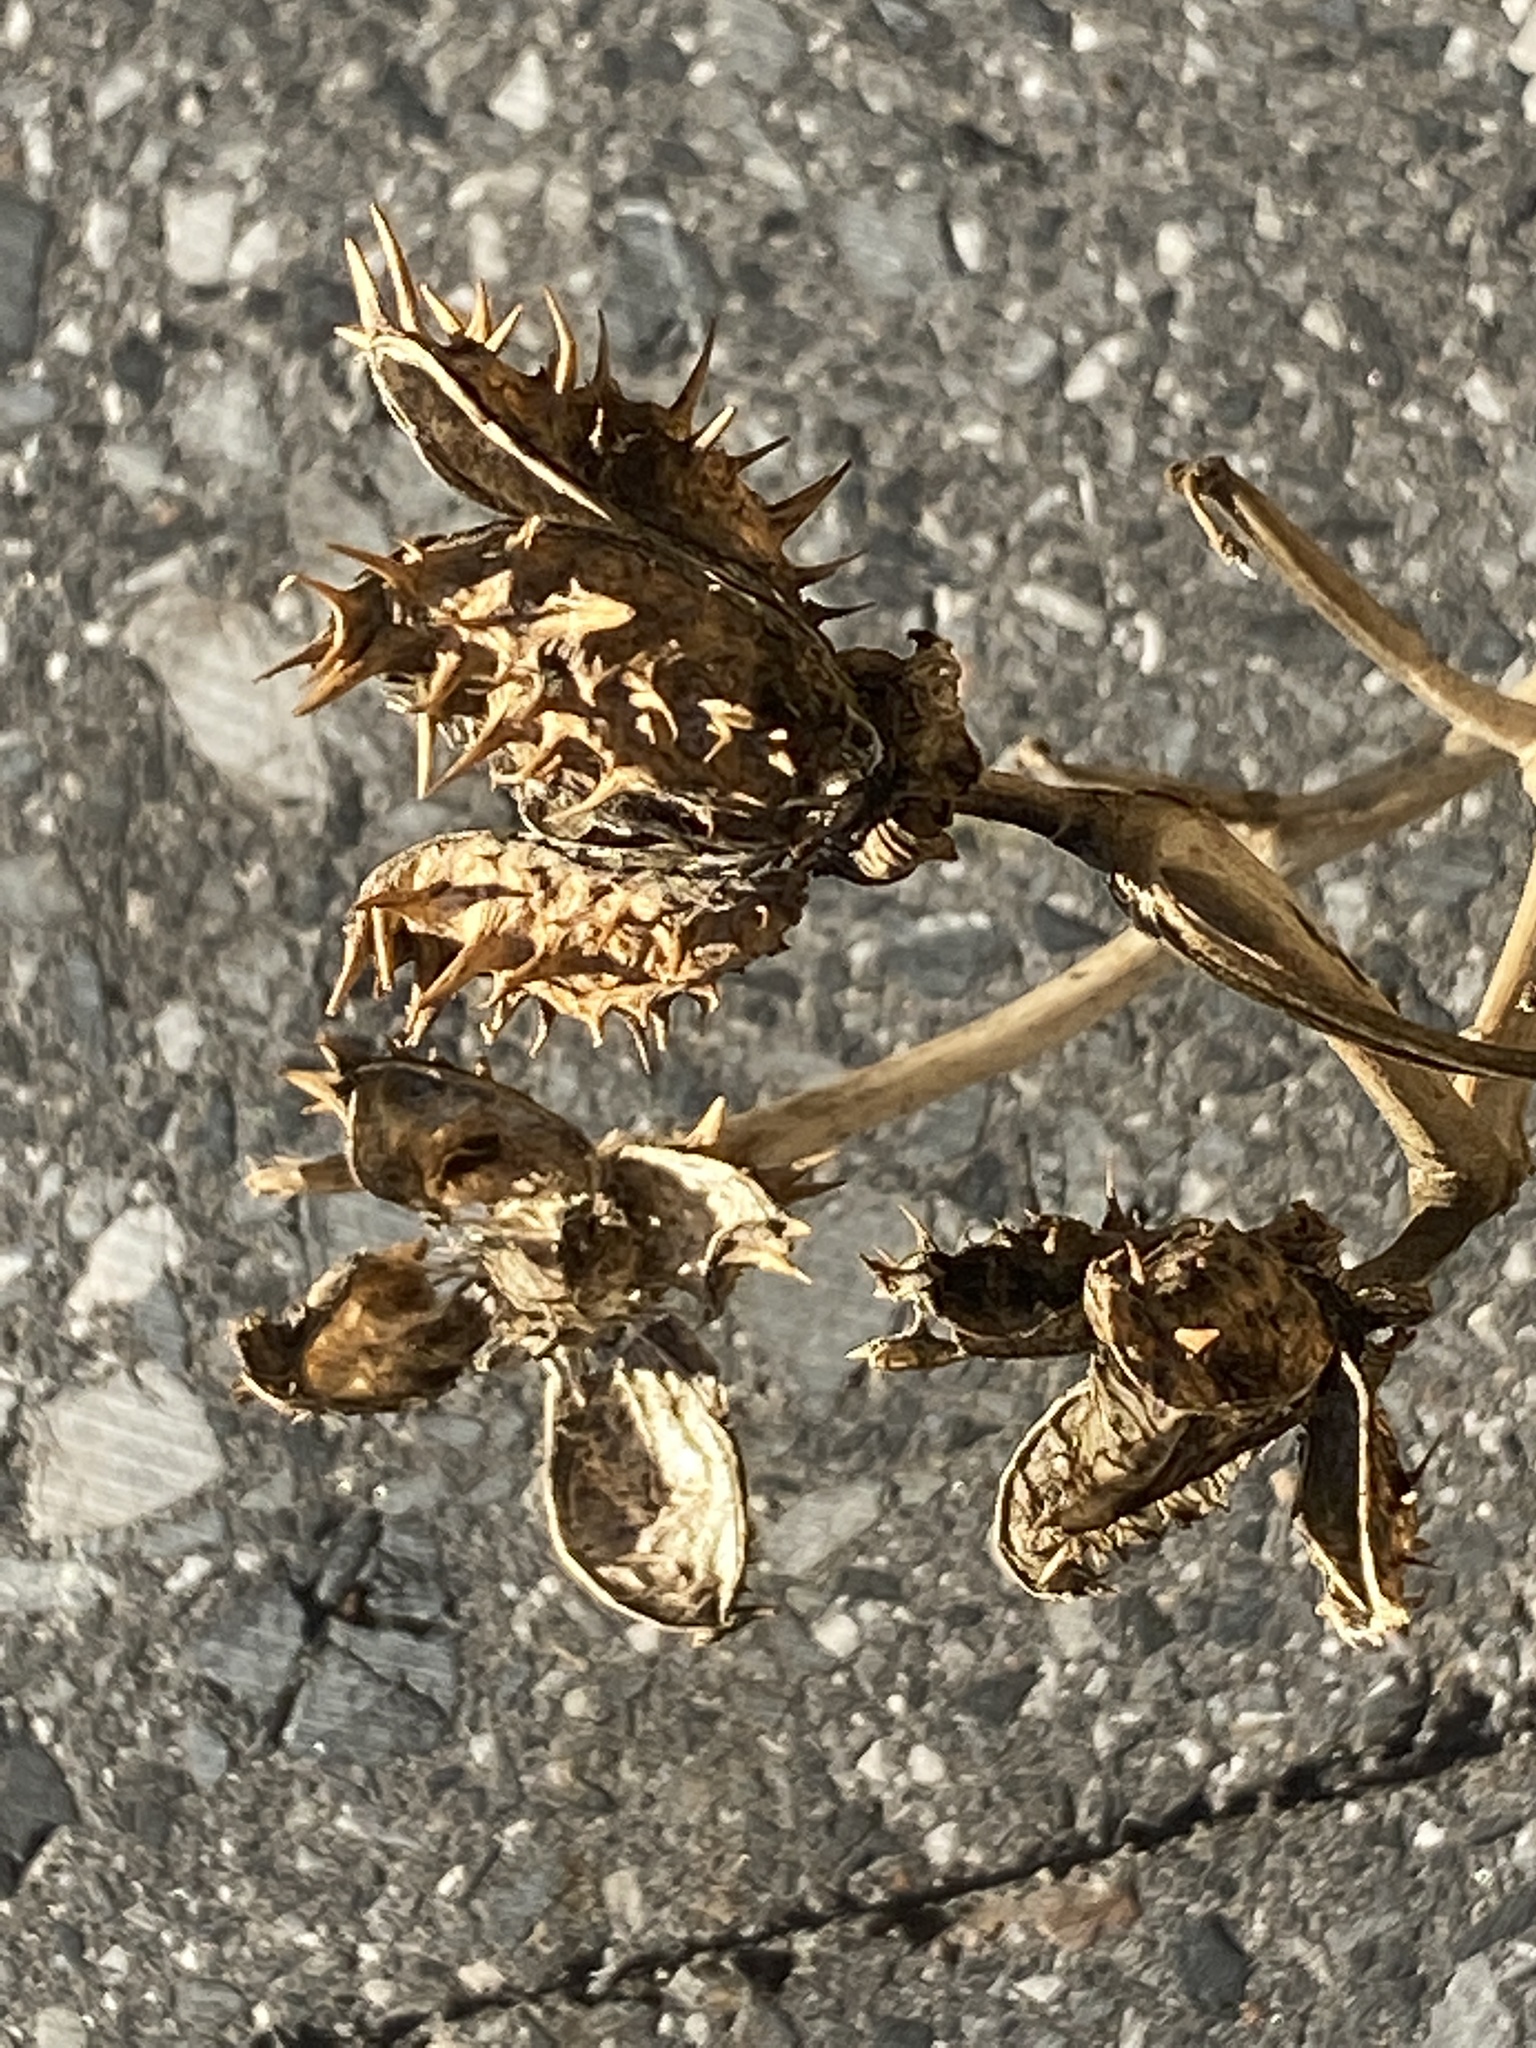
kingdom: Plantae
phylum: Tracheophyta
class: Magnoliopsida
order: Solanales
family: Solanaceae
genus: Datura
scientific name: Datura stramonium
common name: Thorn-apple
